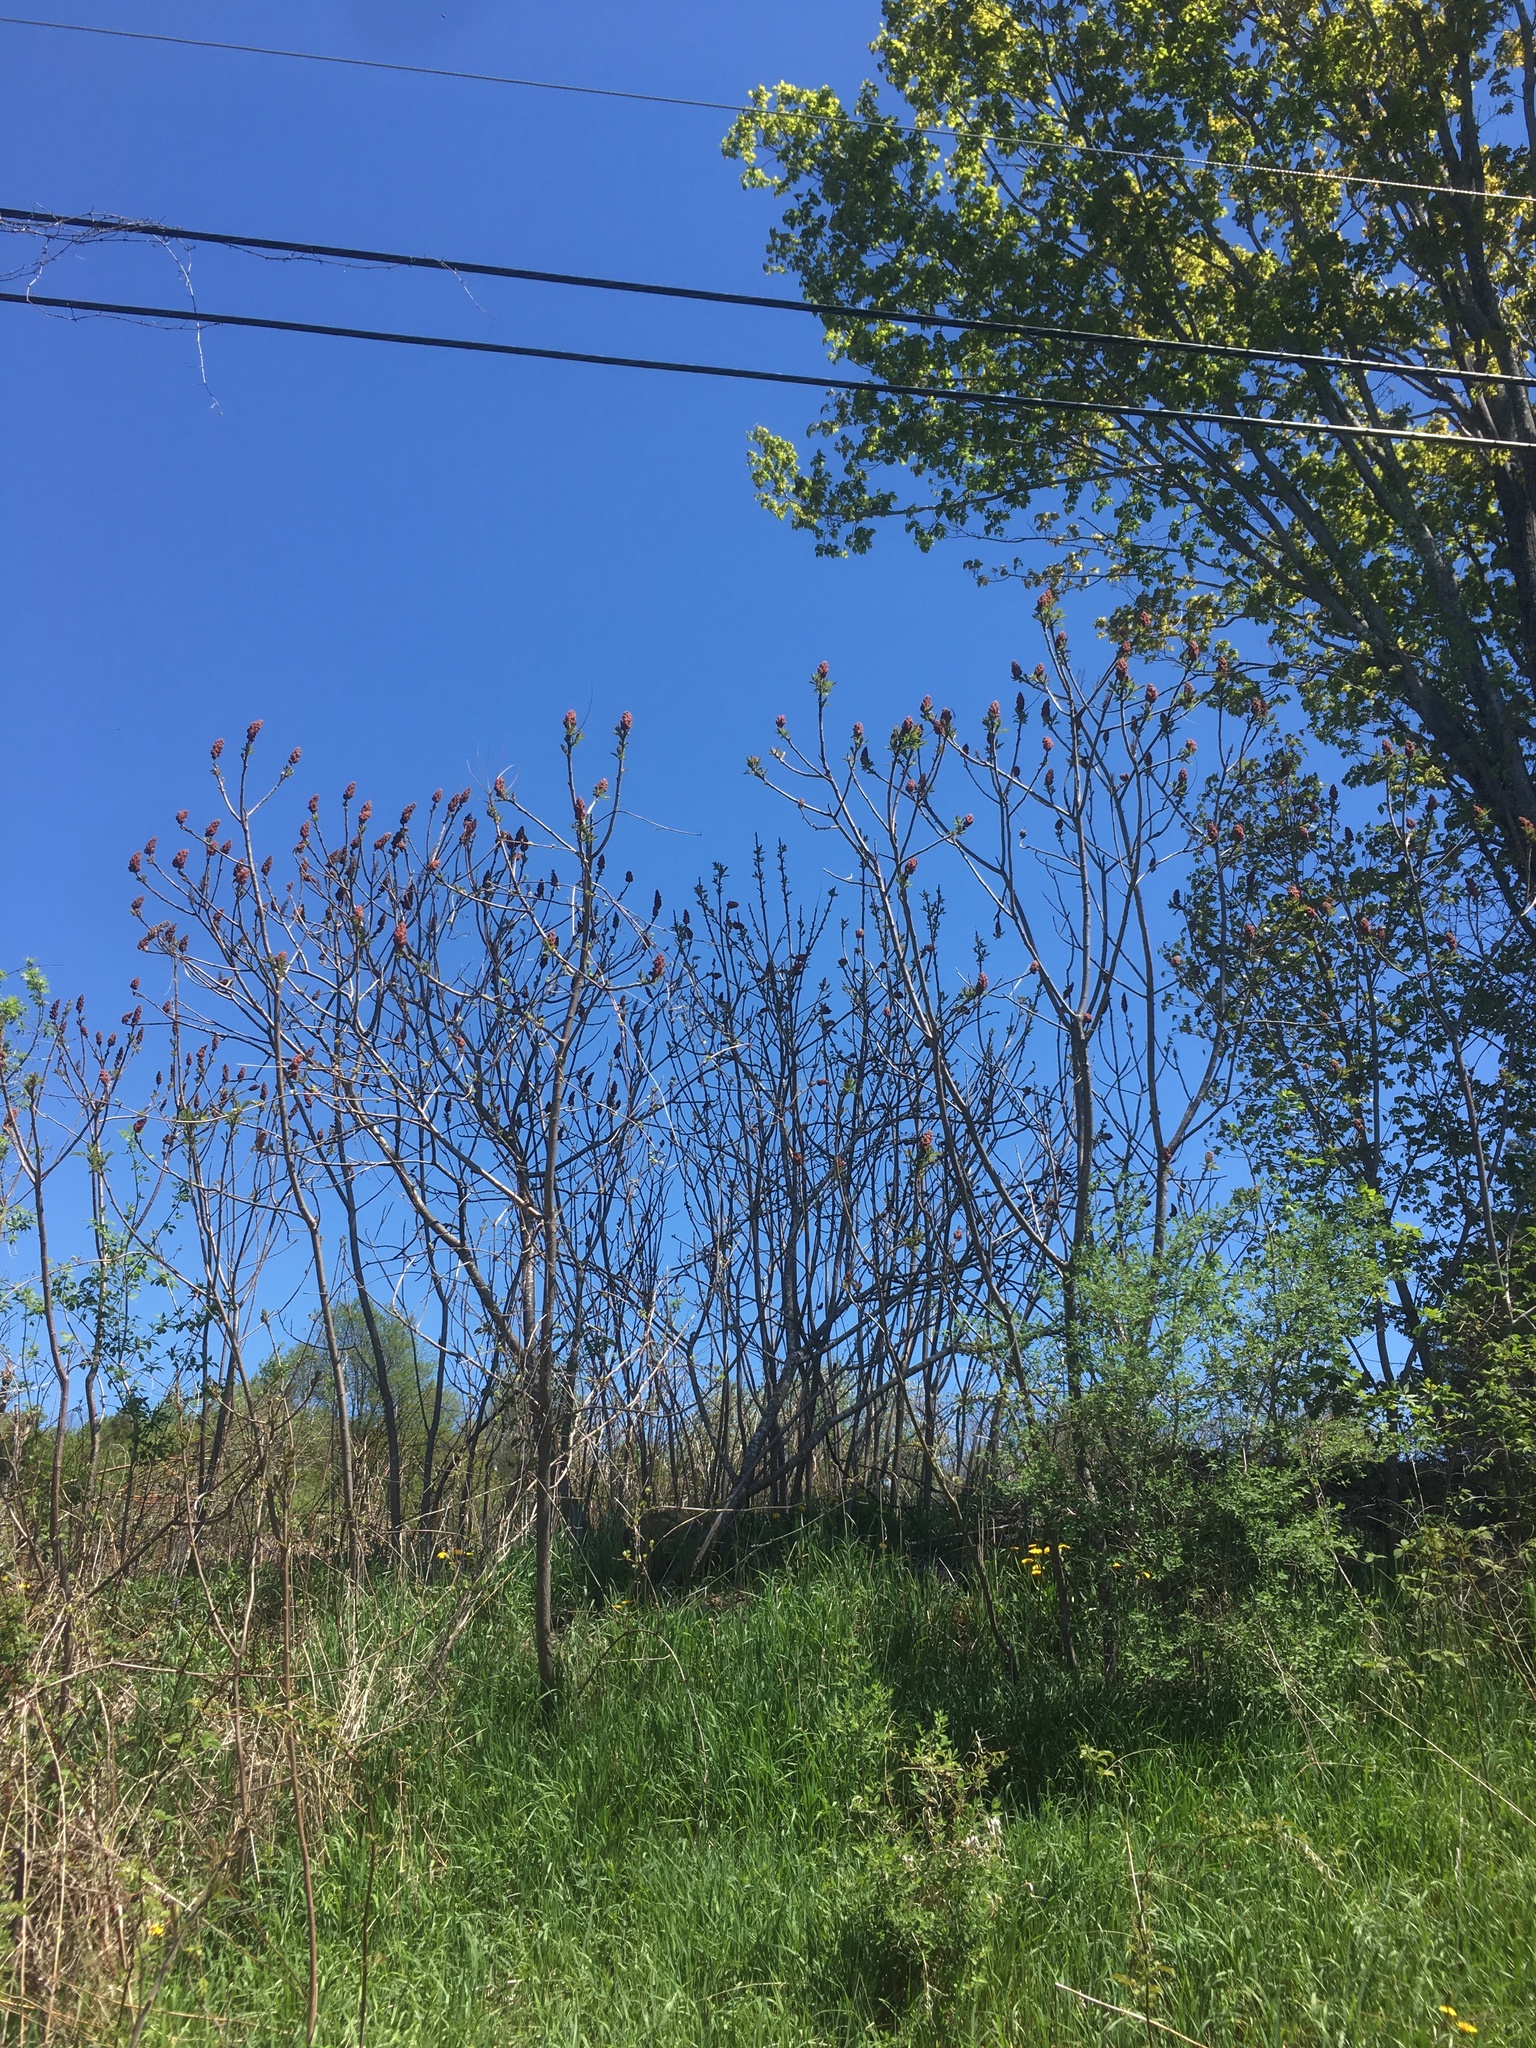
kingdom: Plantae
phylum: Tracheophyta
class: Magnoliopsida
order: Sapindales
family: Anacardiaceae
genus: Rhus
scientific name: Rhus typhina
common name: Staghorn sumac
